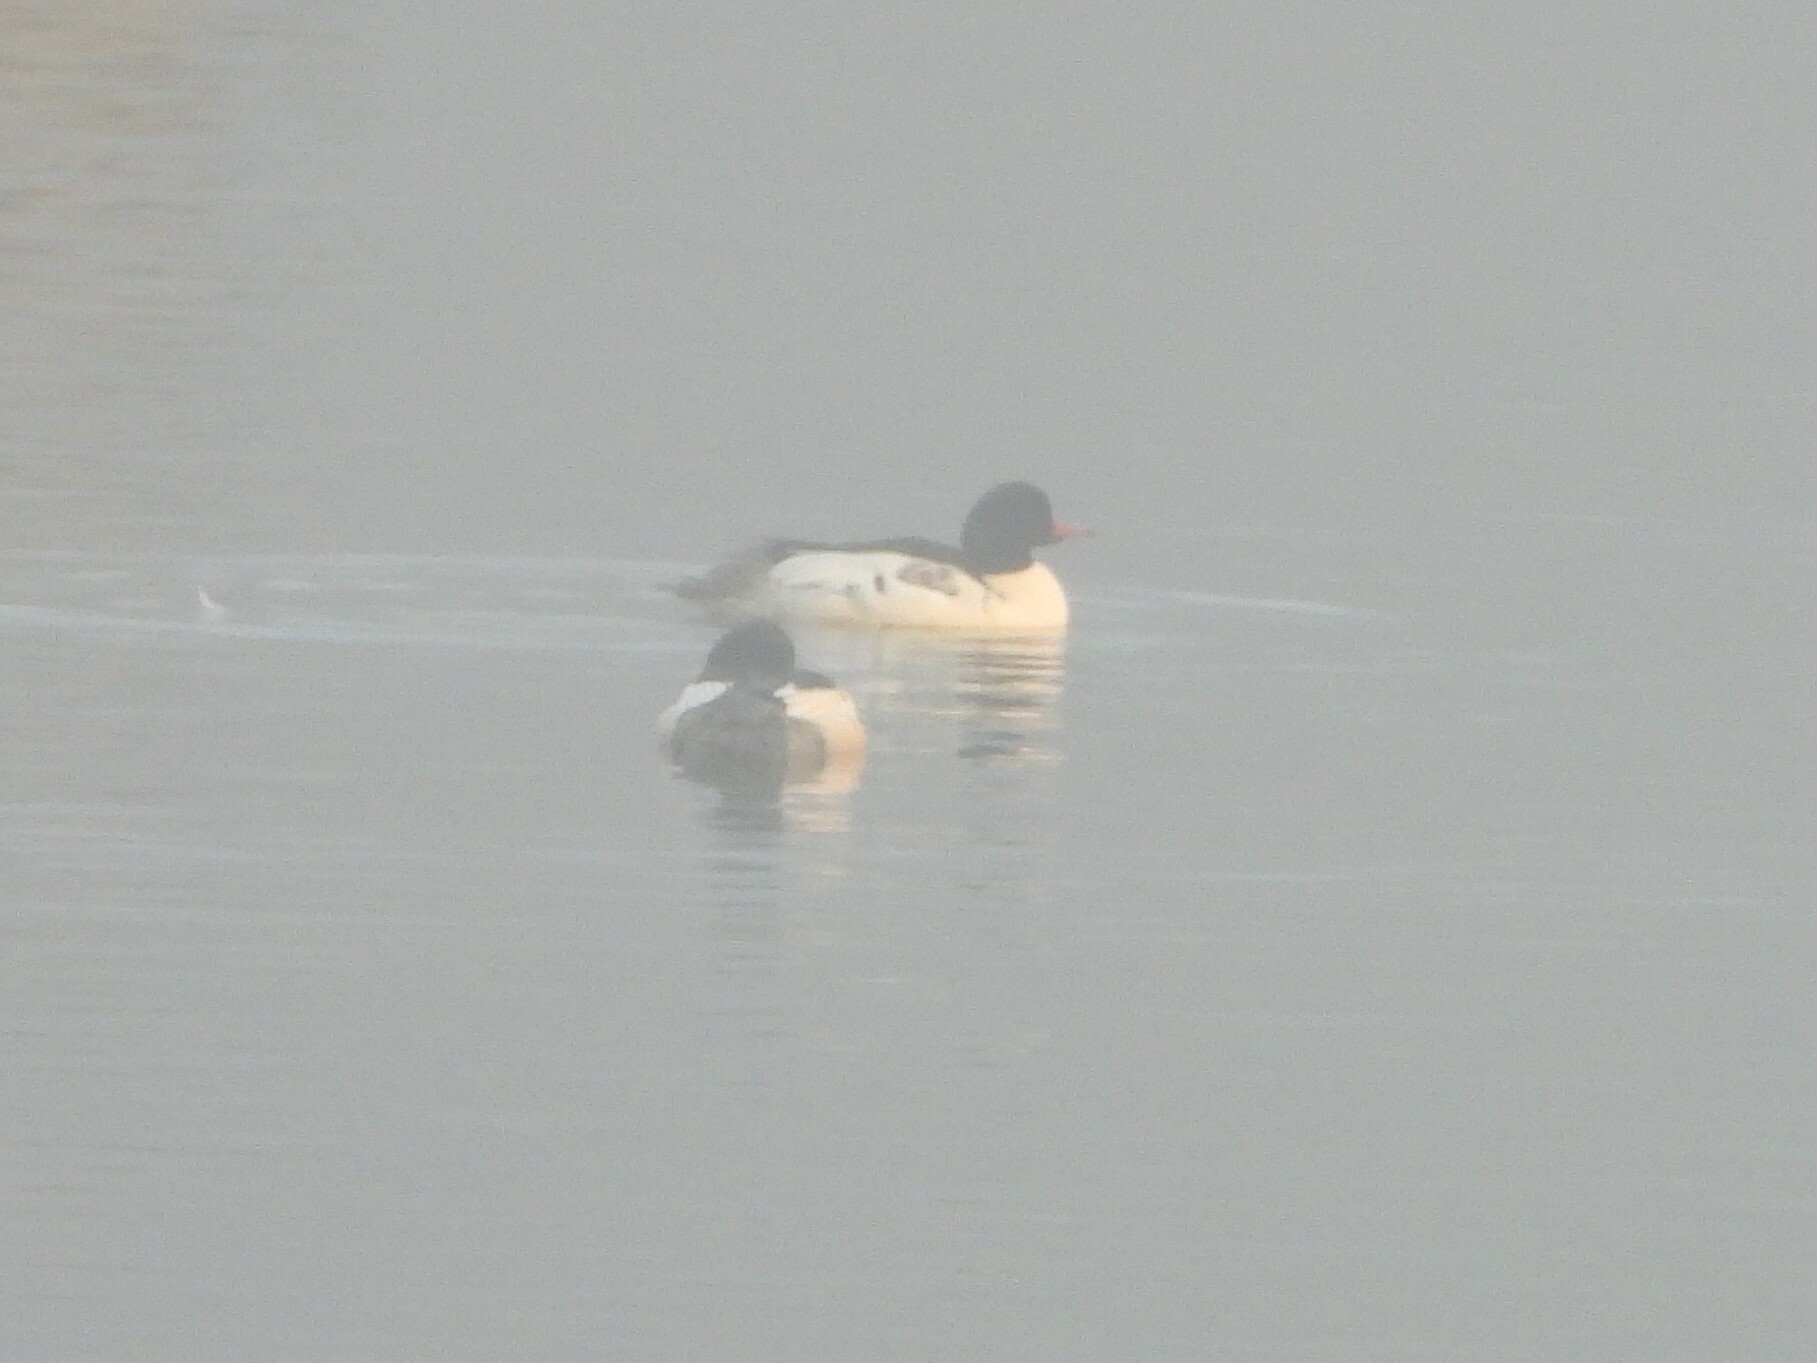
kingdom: Animalia
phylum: Chordata
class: Aves
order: Anseriformes
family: Anatidae
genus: Mergus
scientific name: Mergus merganser
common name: Common merganser
